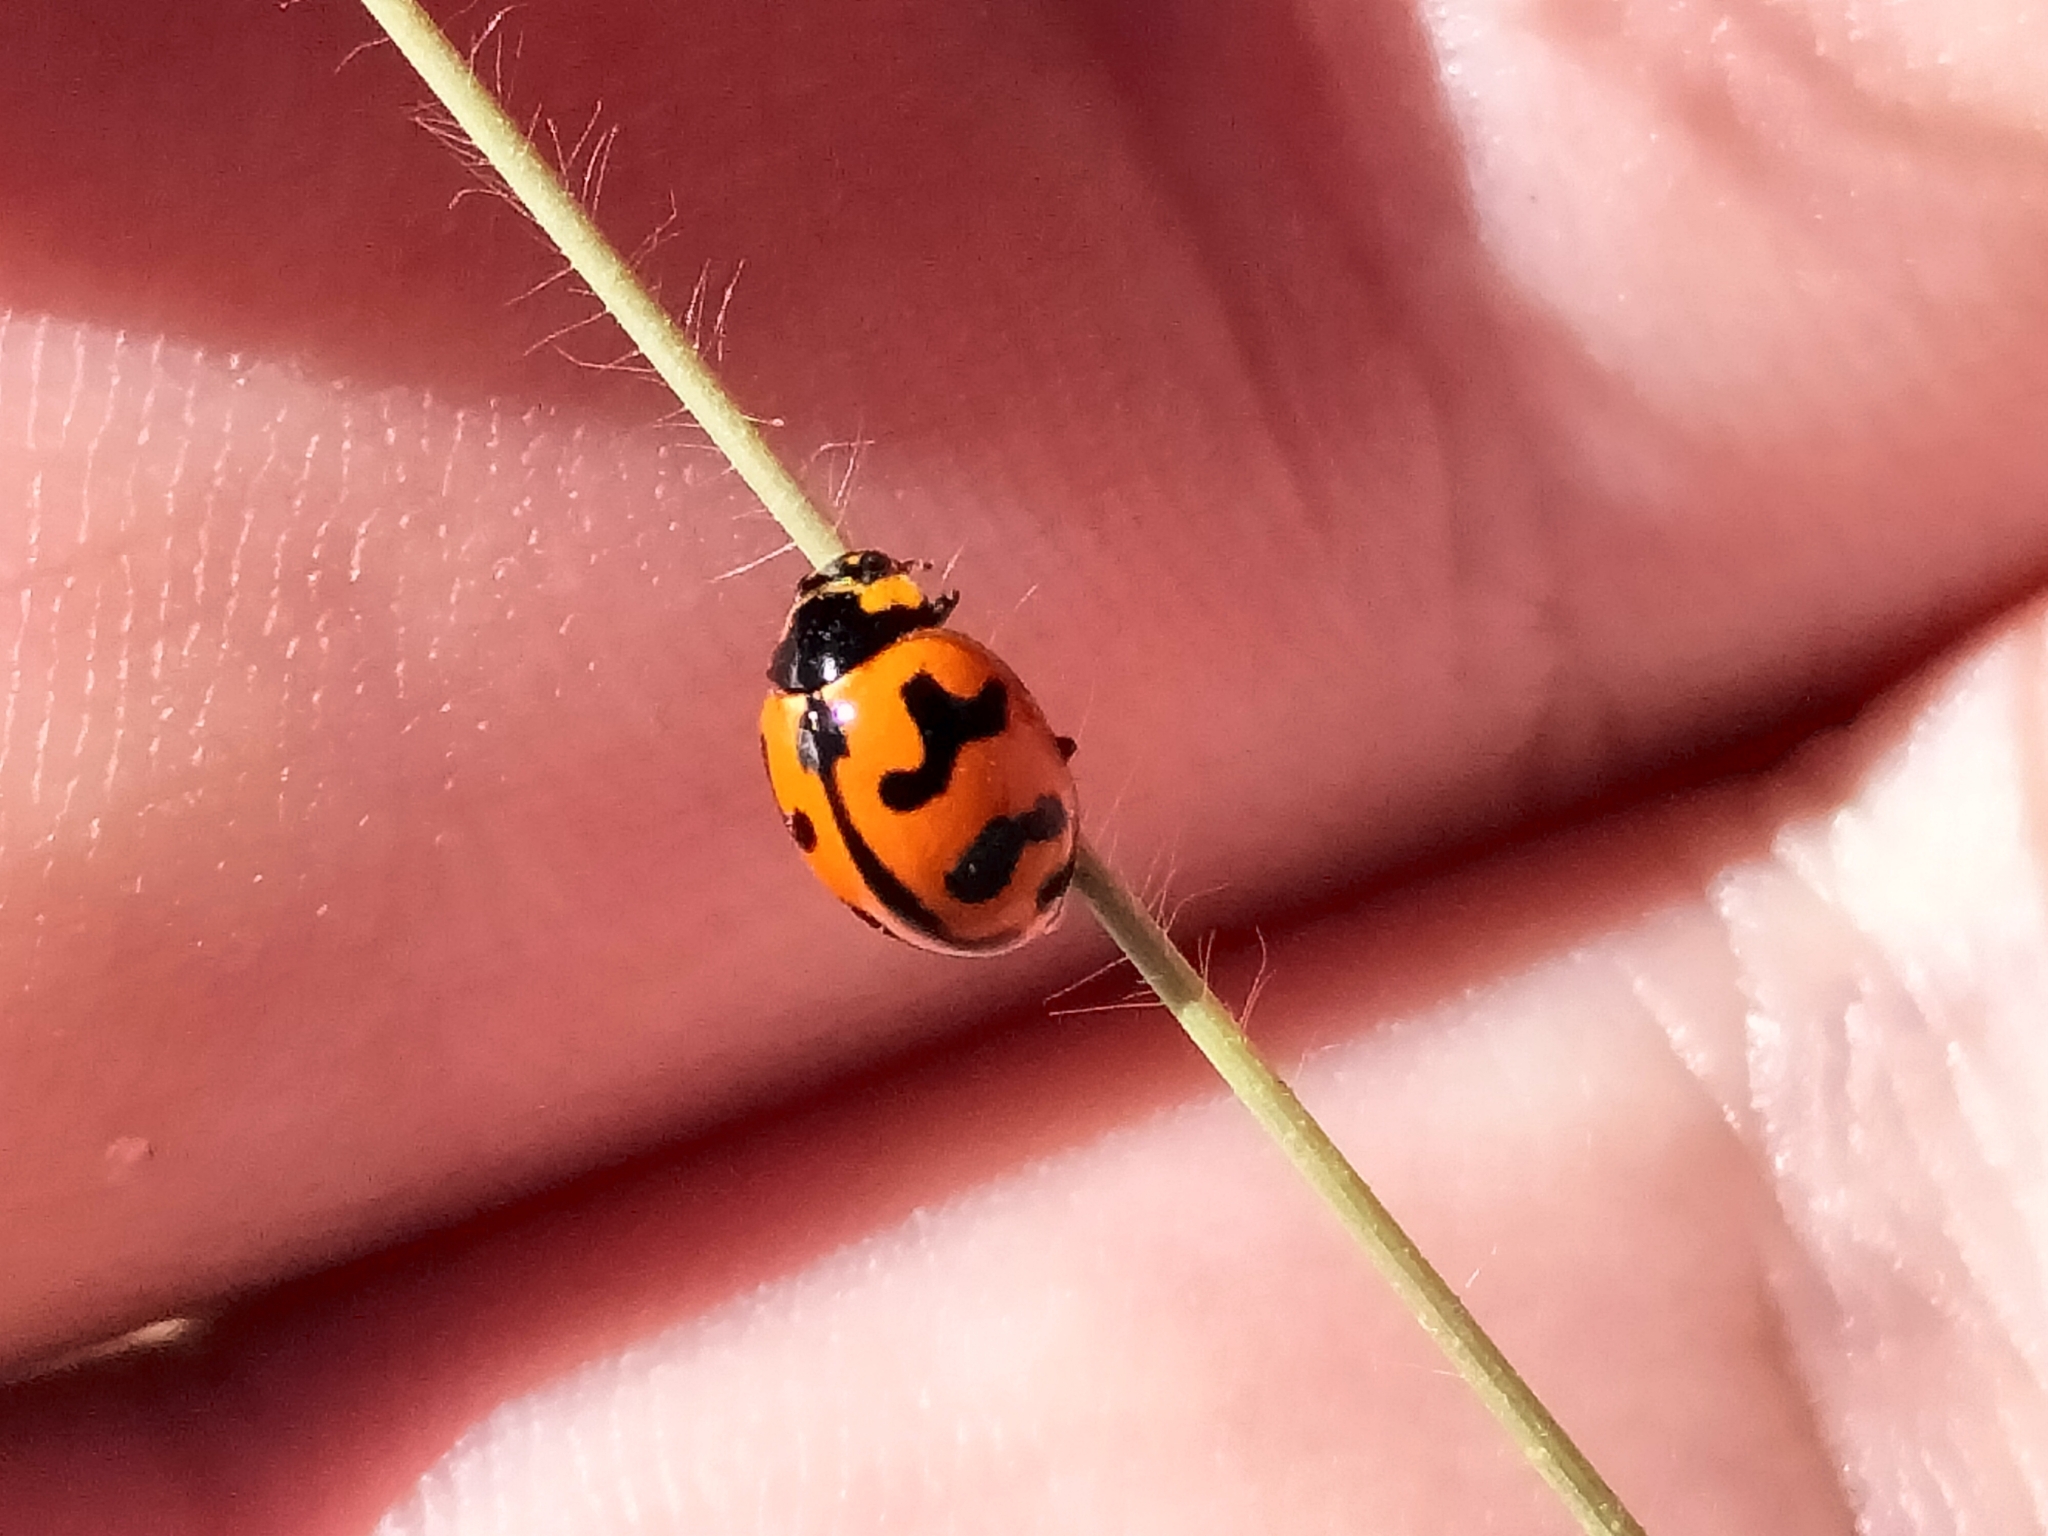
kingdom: Animalia
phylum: Arthropoda
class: Insecta
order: Coleoptera
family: Coccinellidae
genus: Coccinella
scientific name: Coccinella transversalis
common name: Transverse lady beetle
